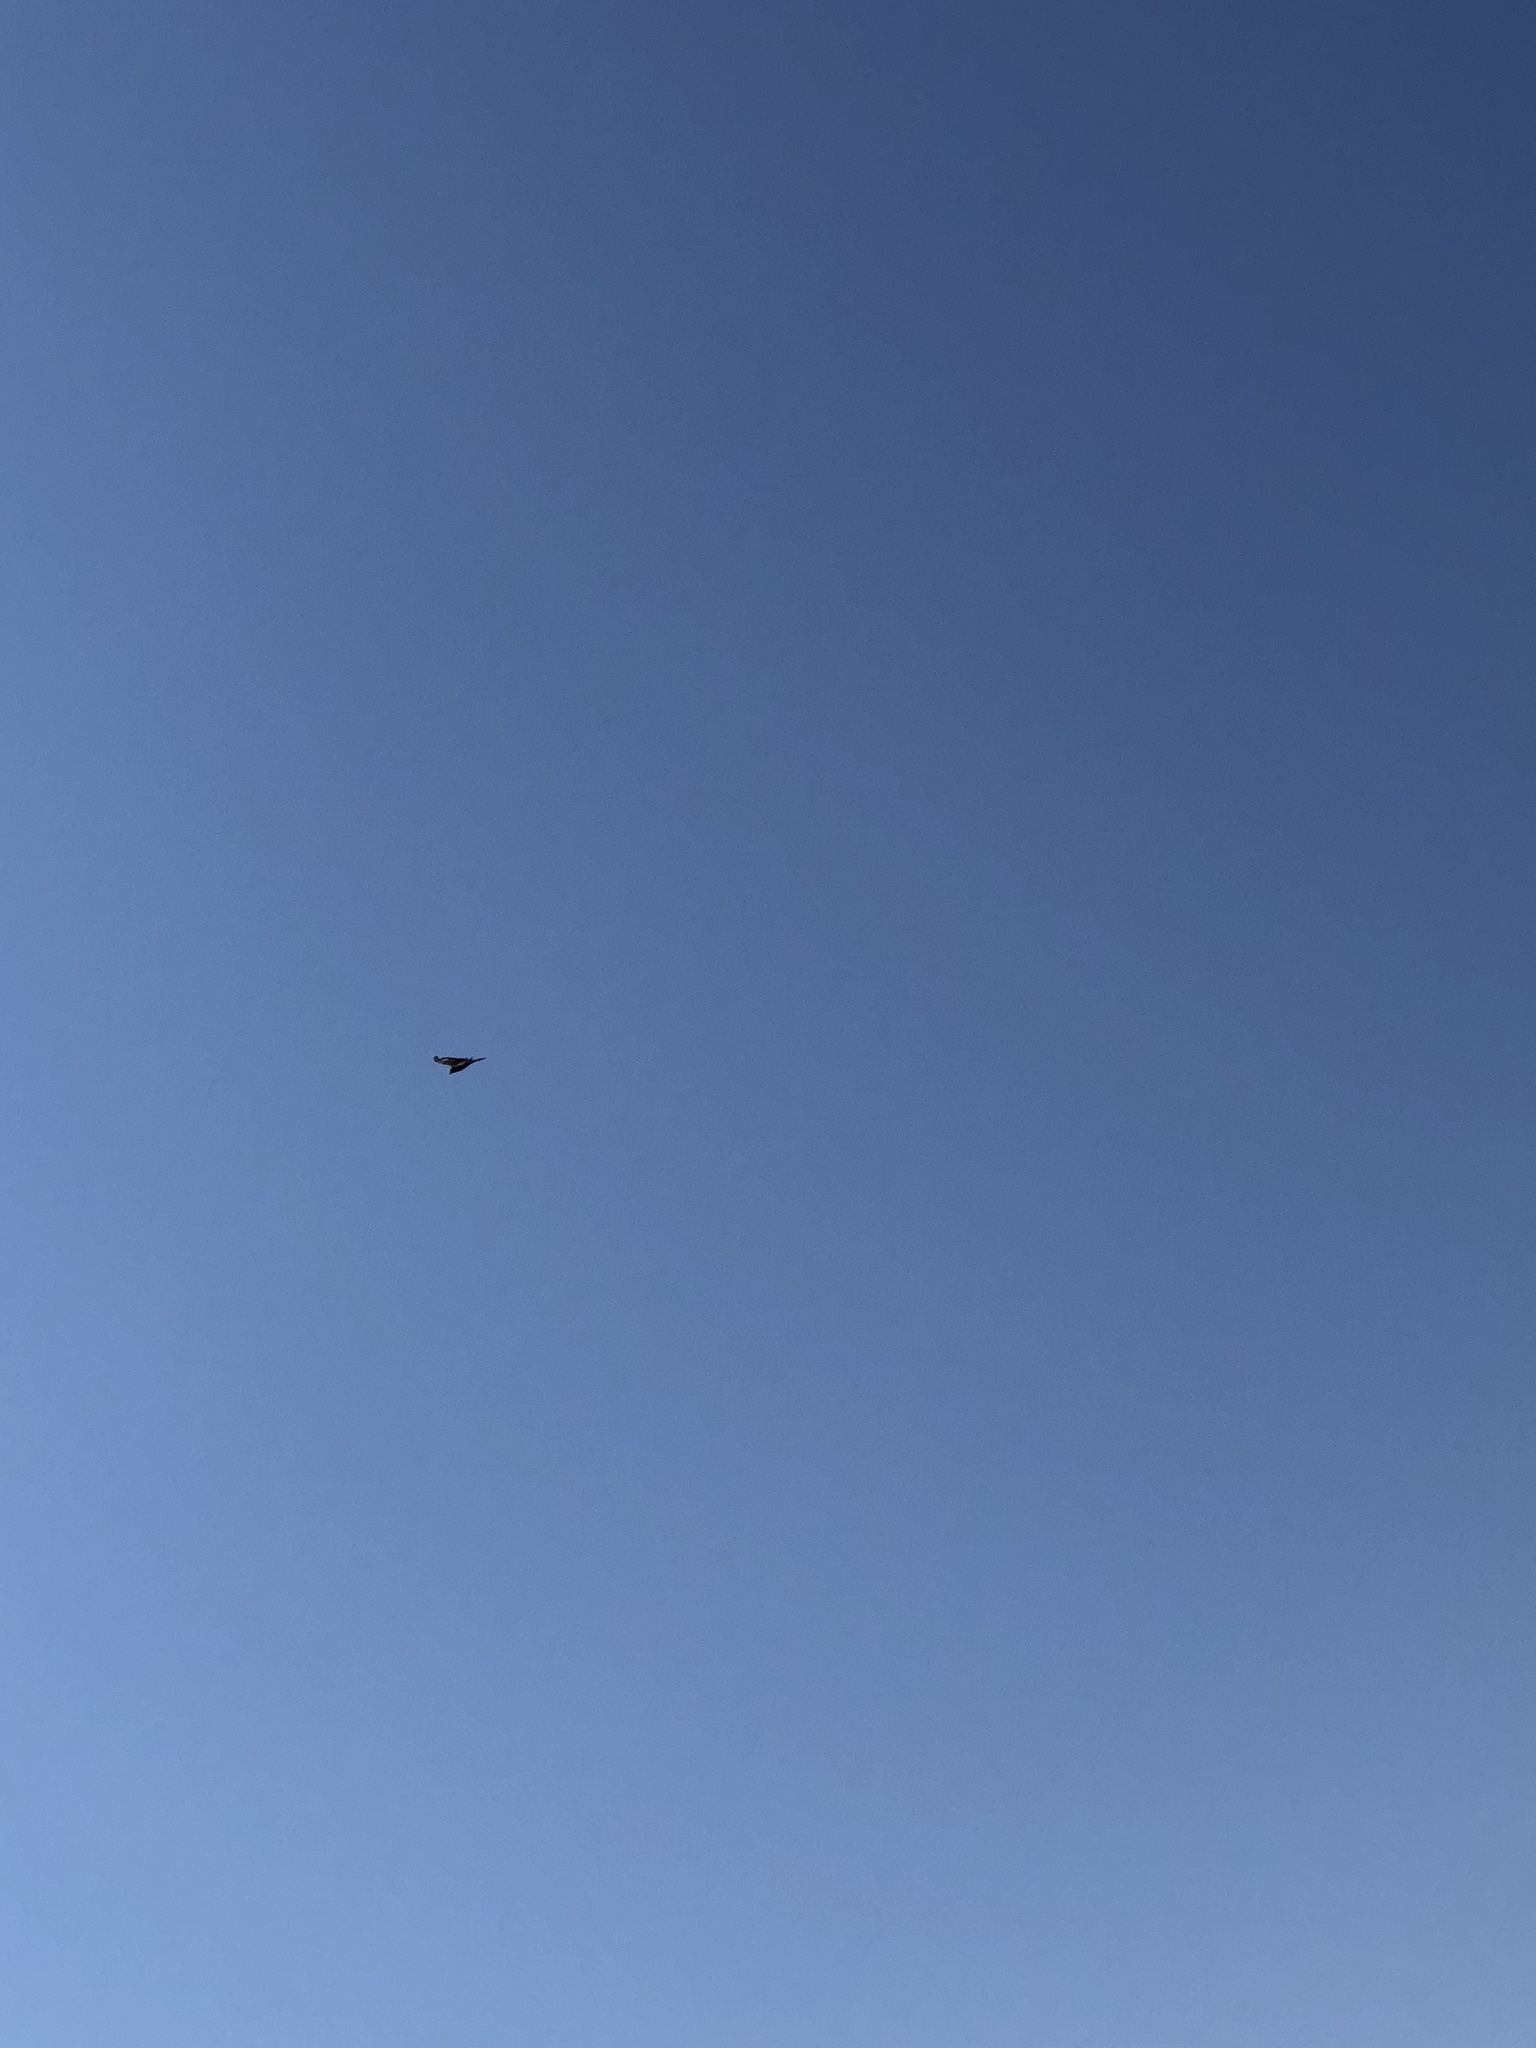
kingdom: Animalia
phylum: Chordata
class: Aves
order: Accipitriformes
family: Cathartidae
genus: Cathartes
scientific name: Cathartes aura
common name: Turkey vulture
